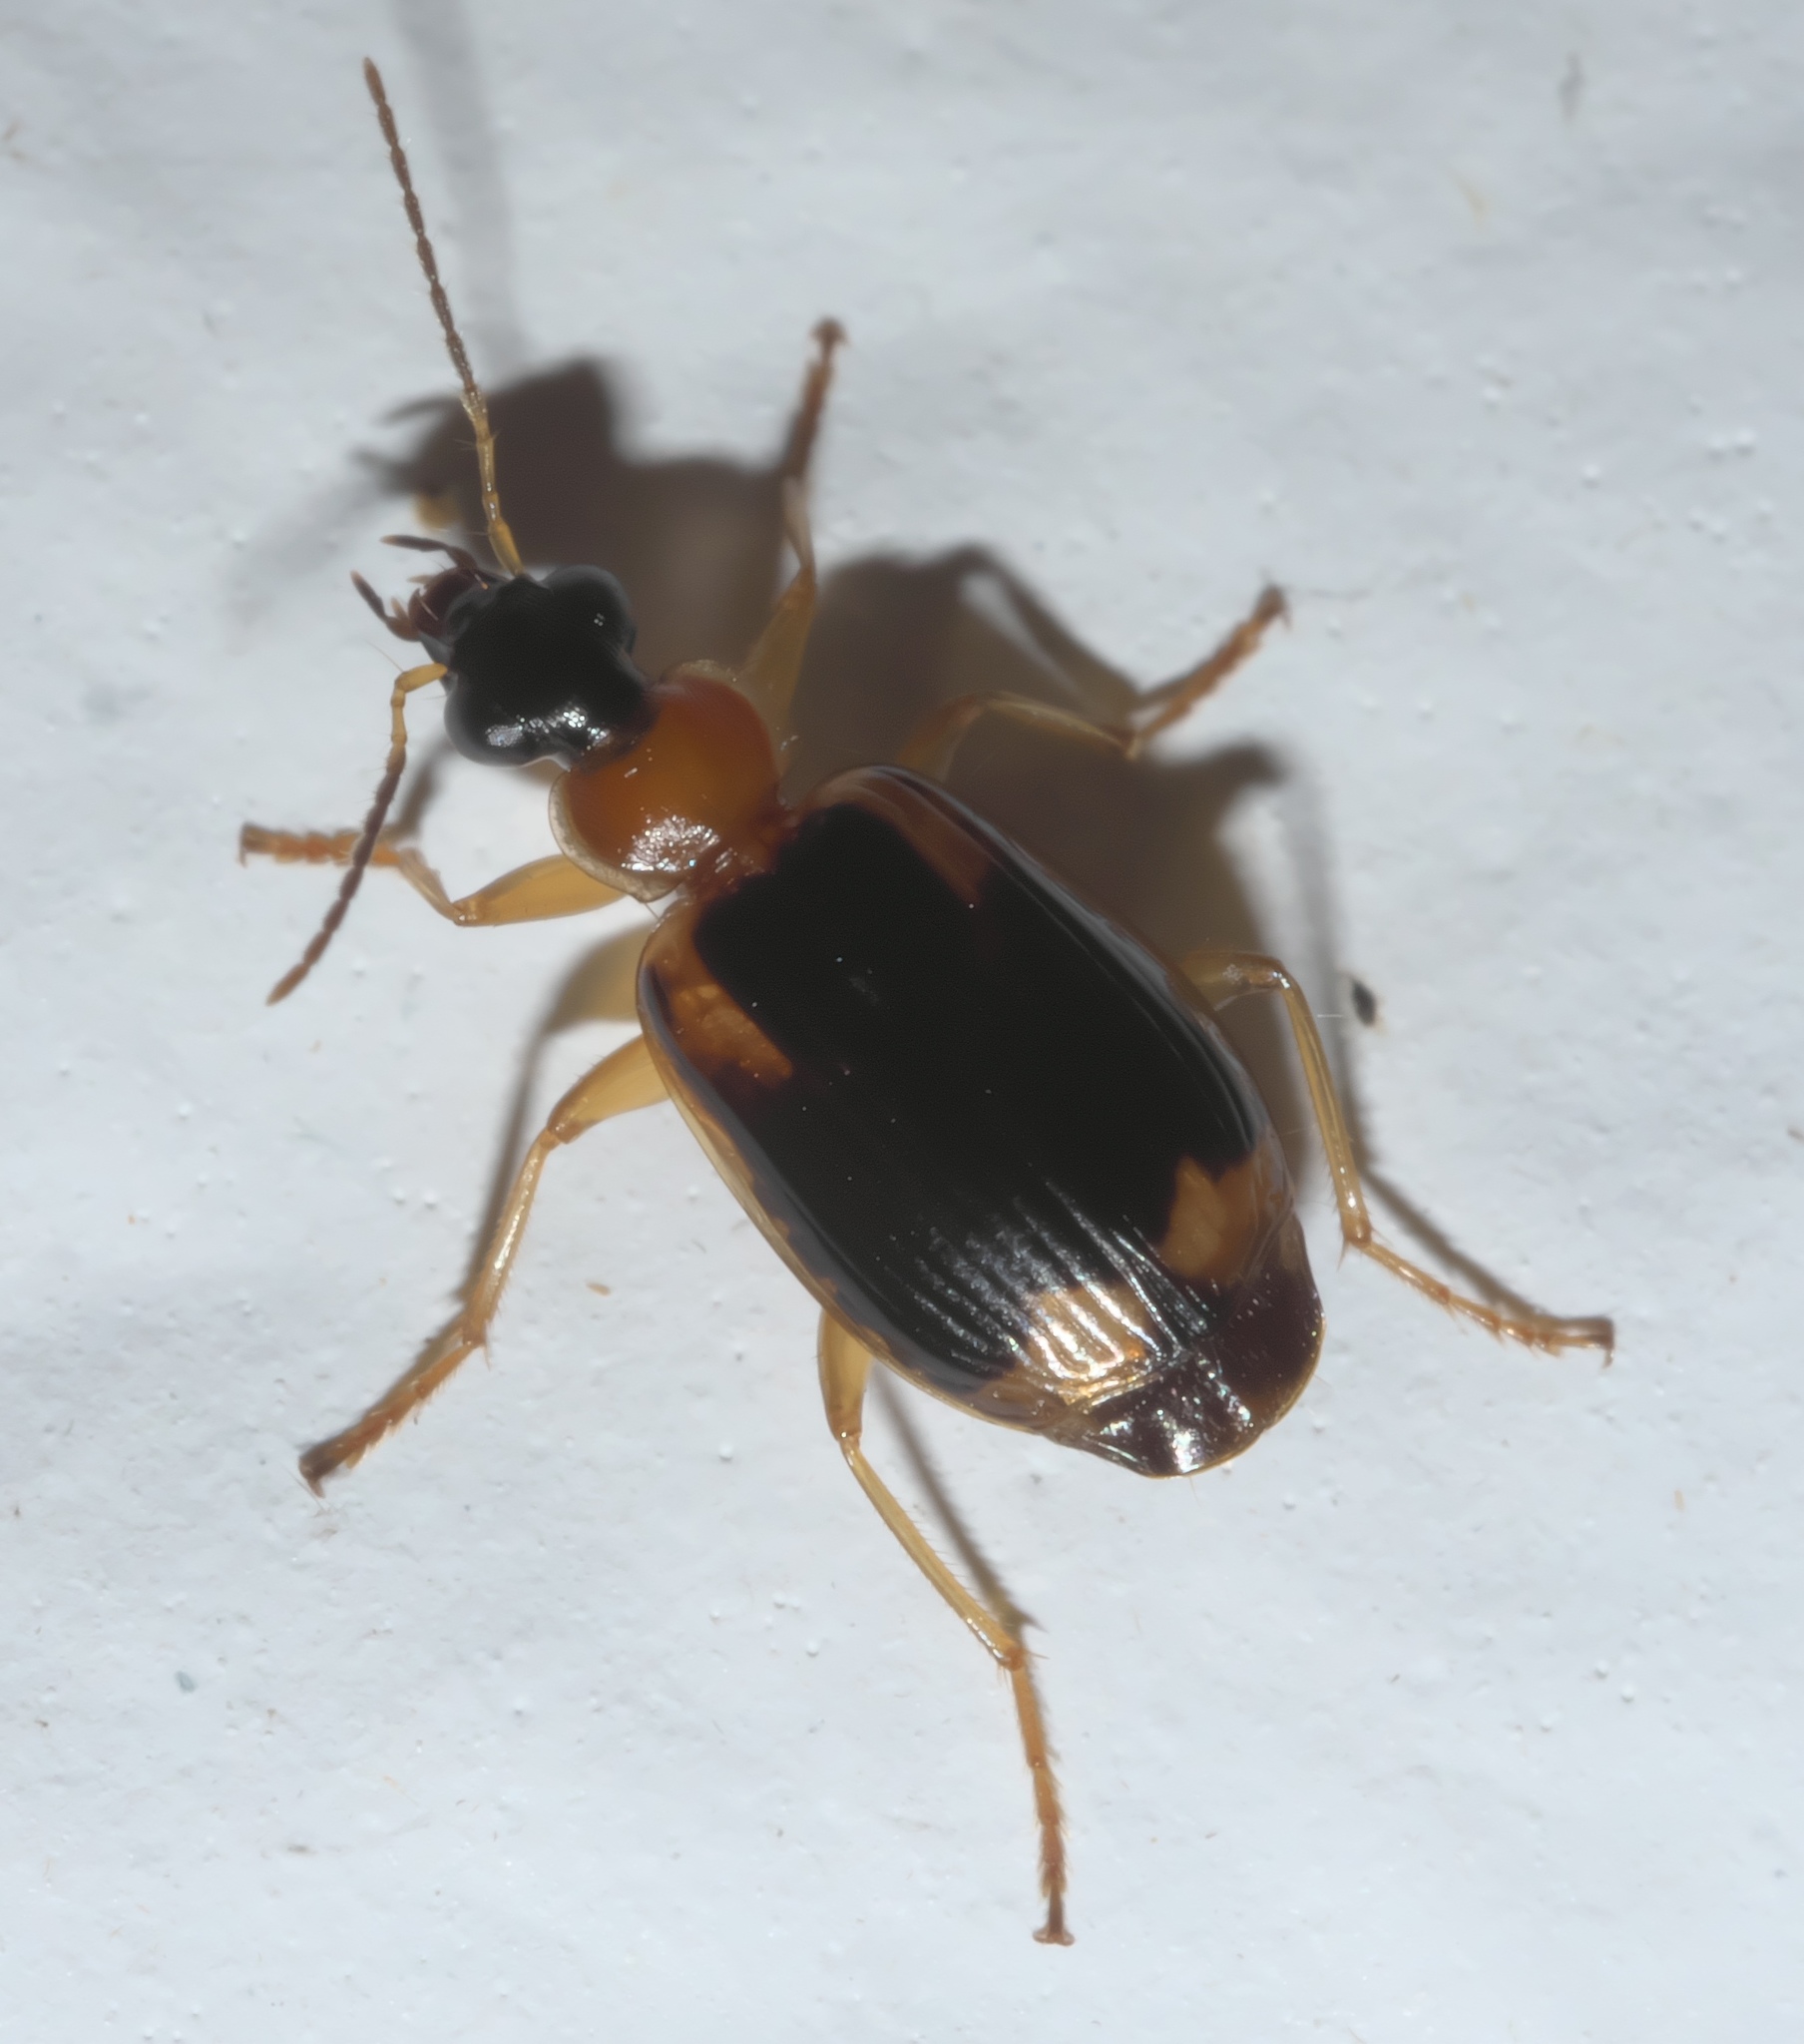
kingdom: Animalia
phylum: Arthropoda
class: Insecta
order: Coleoptera
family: Carabidae
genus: Lebia
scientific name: Lebia analis
